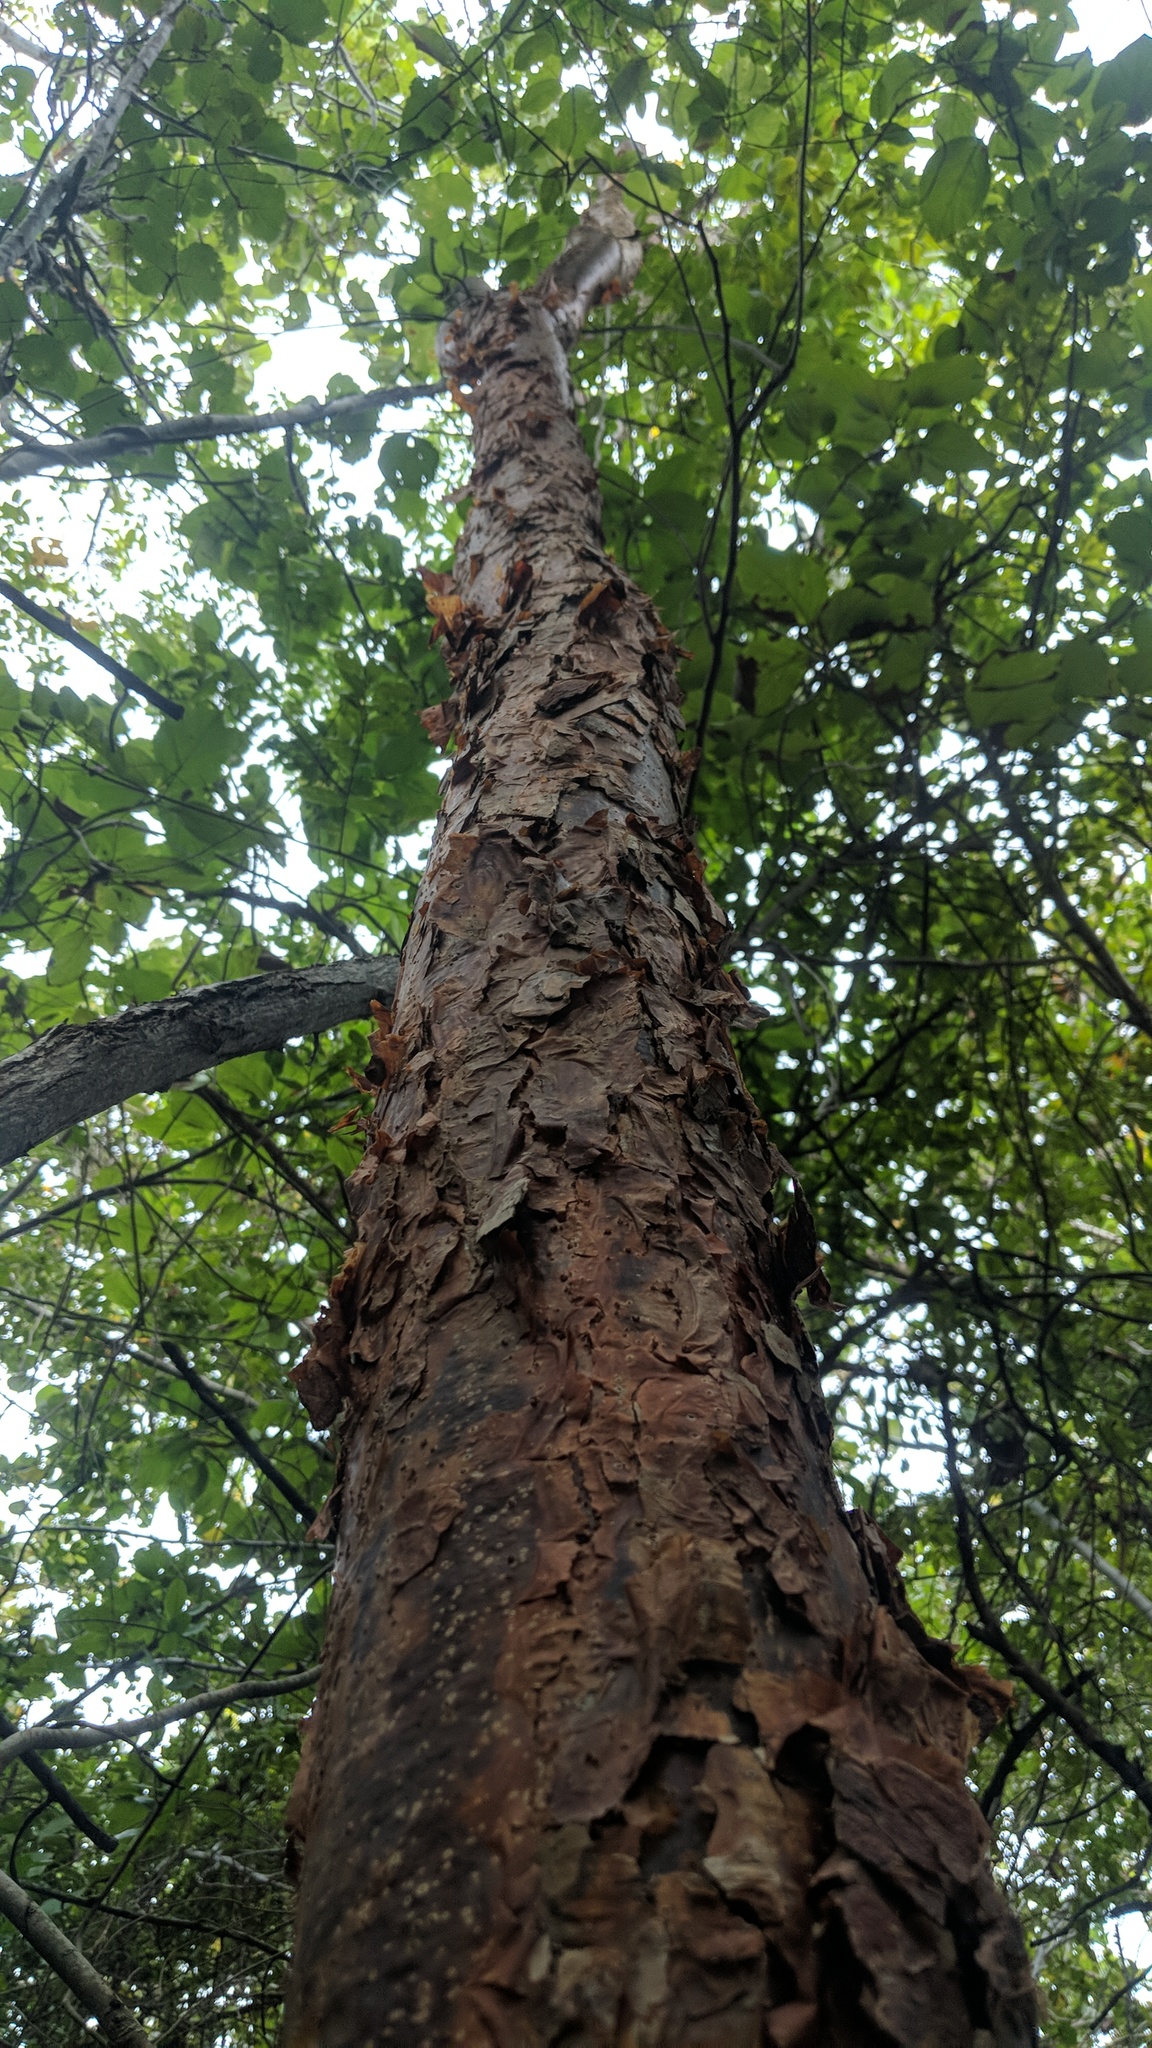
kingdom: Plantae
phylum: Tracheophyta
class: Magnoliopsida
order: Sapindales
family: Burseraceae
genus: Bursera
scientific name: Bursera simaruba
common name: Turpentine tree
